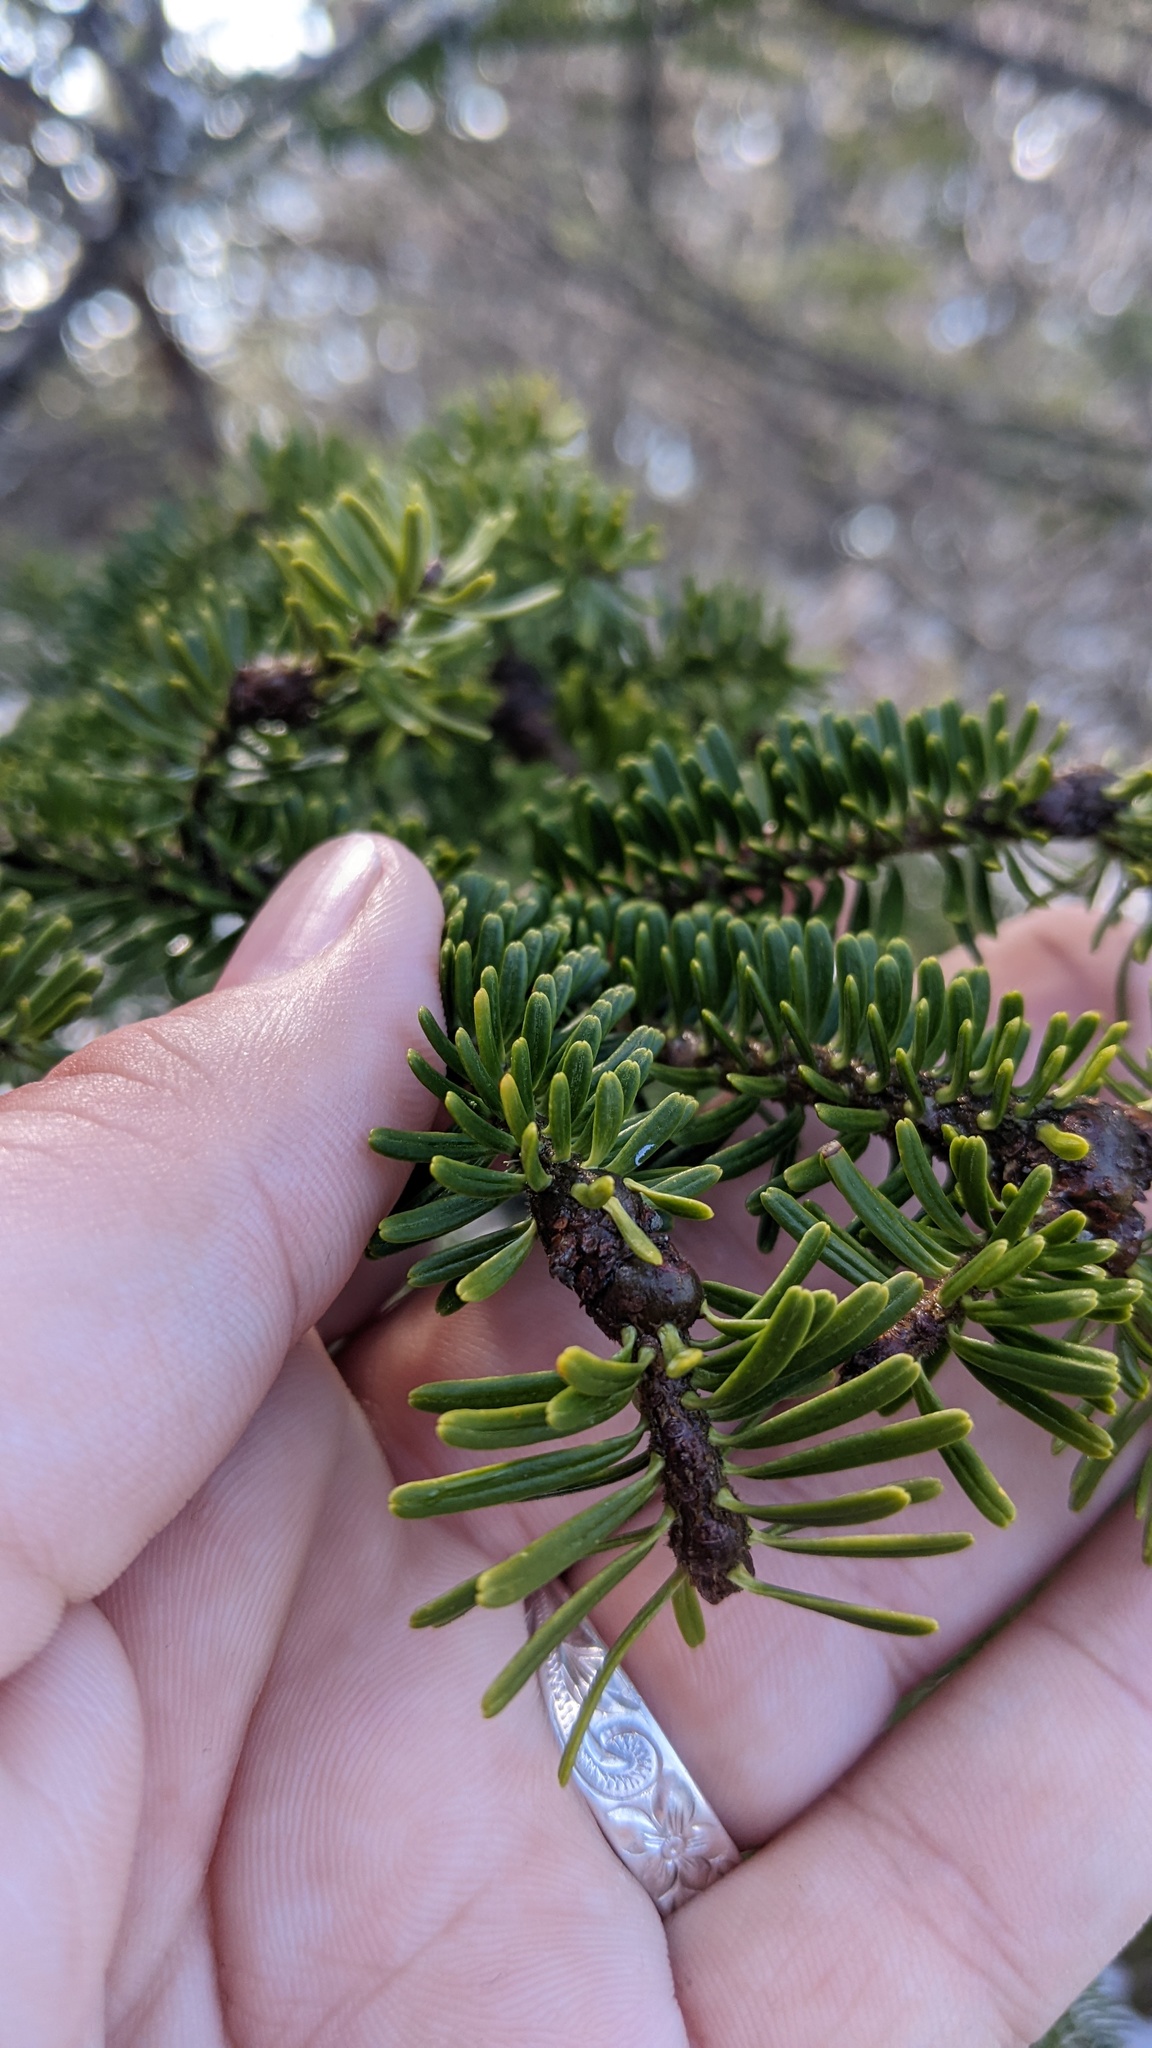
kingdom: Animalia
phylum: Arthropoda
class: Insecta
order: Hemiptera
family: Adelgidae
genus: Adelges
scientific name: Adelges piceae
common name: Balsam woolly adelgid
